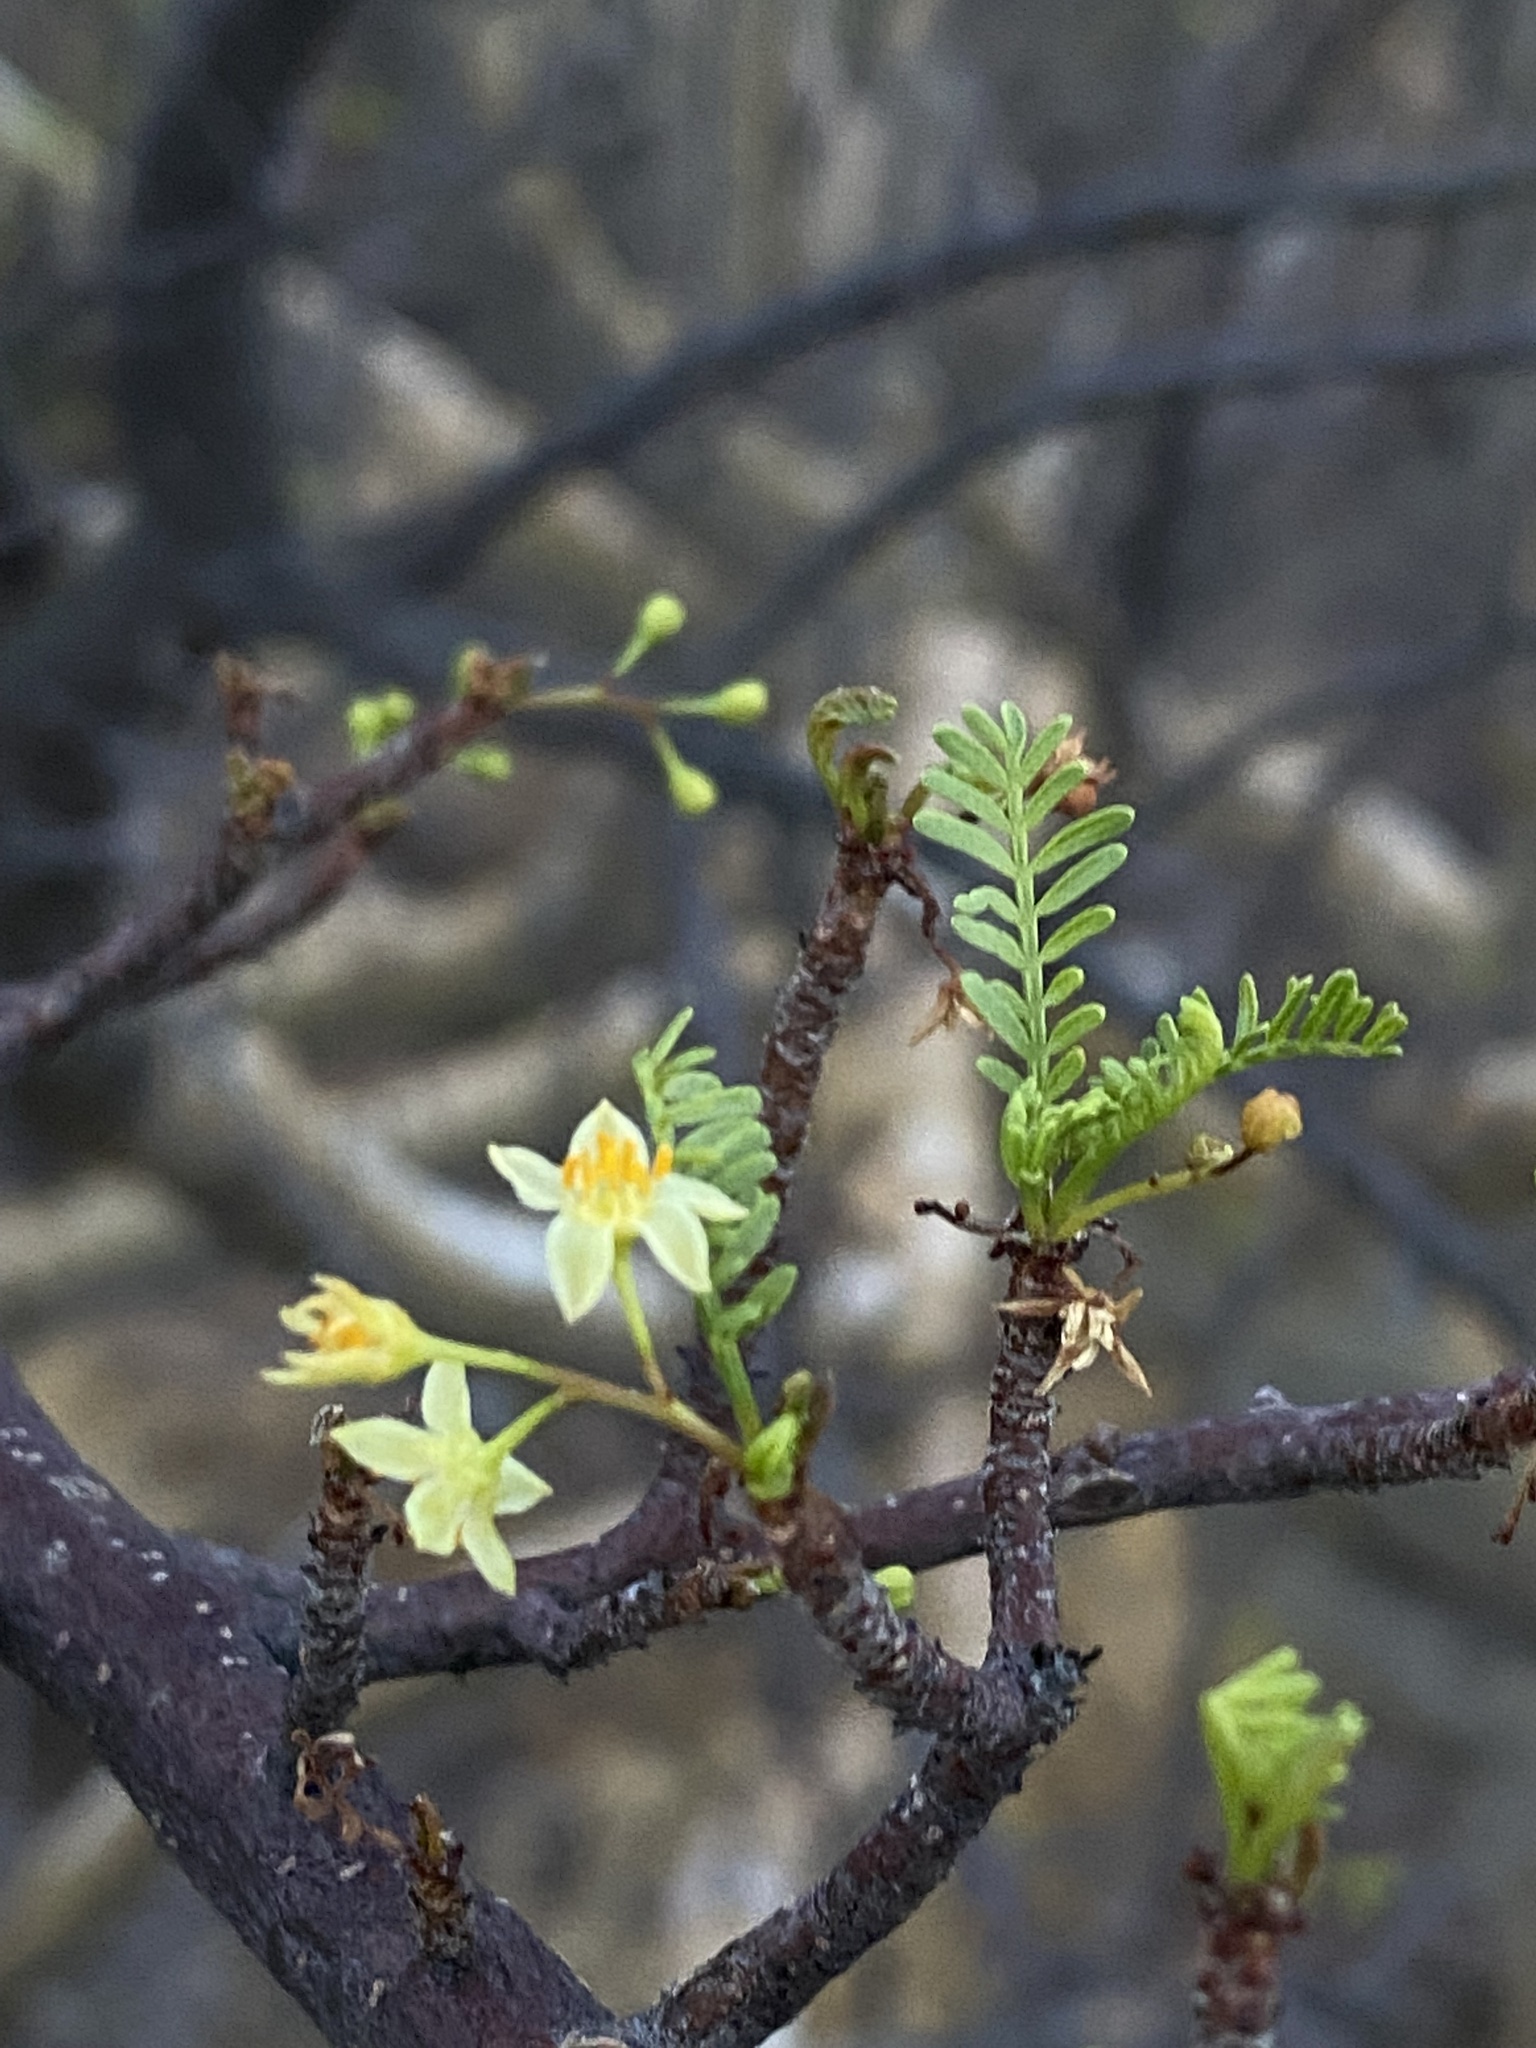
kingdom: Plantae
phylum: Tracheophyta
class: Magnoliopsida
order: Sapindales
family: Burseraceae
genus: Bursera
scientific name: Bursera microphylla
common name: Elephant tree
